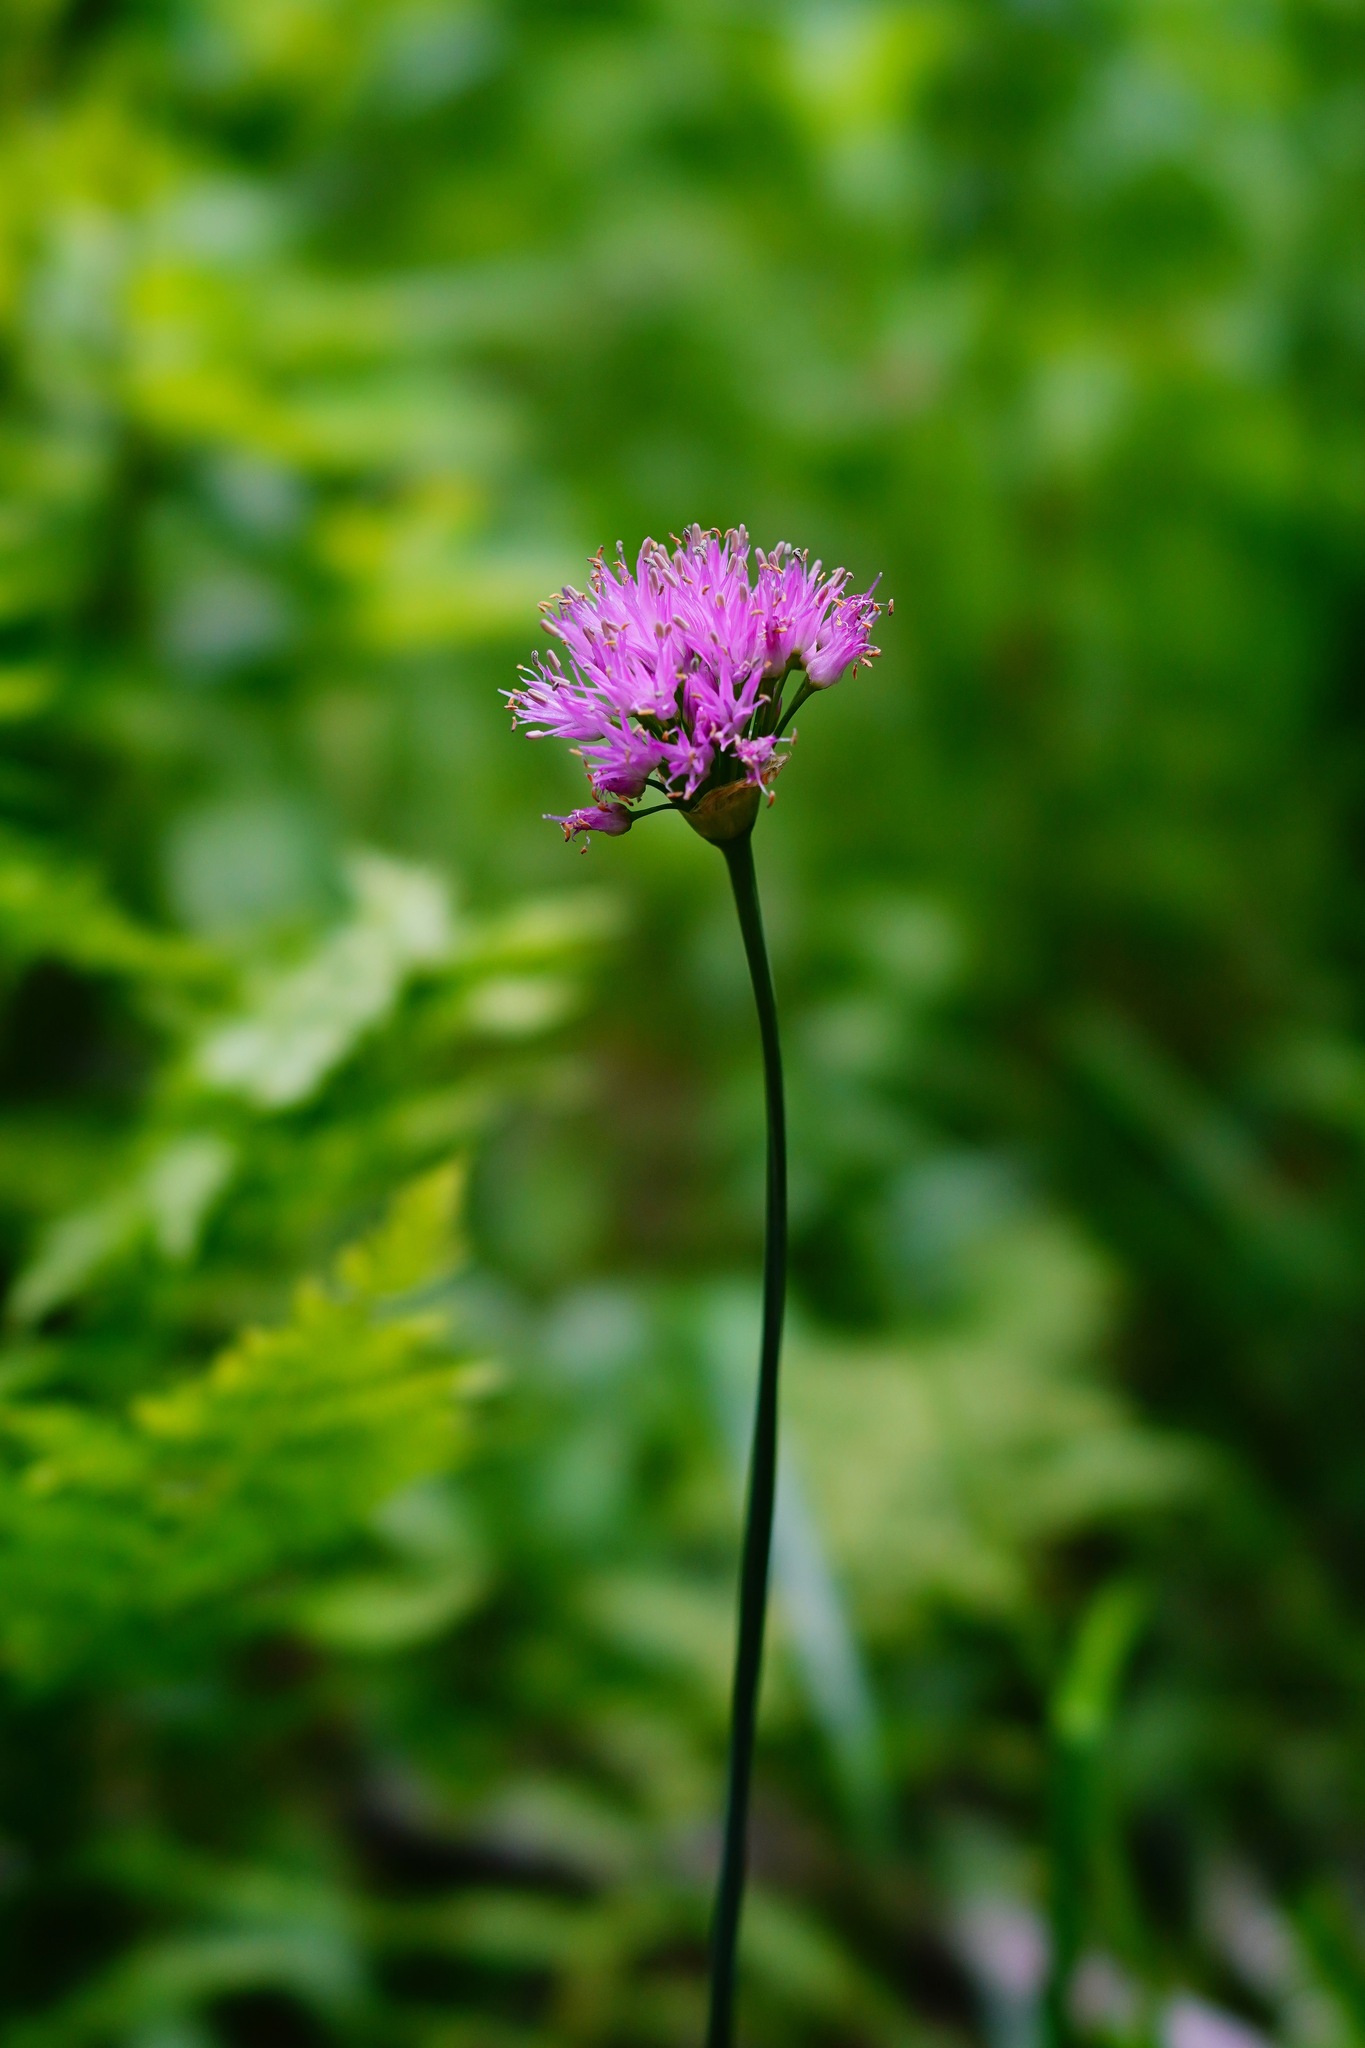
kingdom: Plantae
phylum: Tracheophyta
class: Liliopsida
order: Asparagales
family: Amaryllidaceae
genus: Allium
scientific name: Allium validum
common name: Pacific mountain onion
